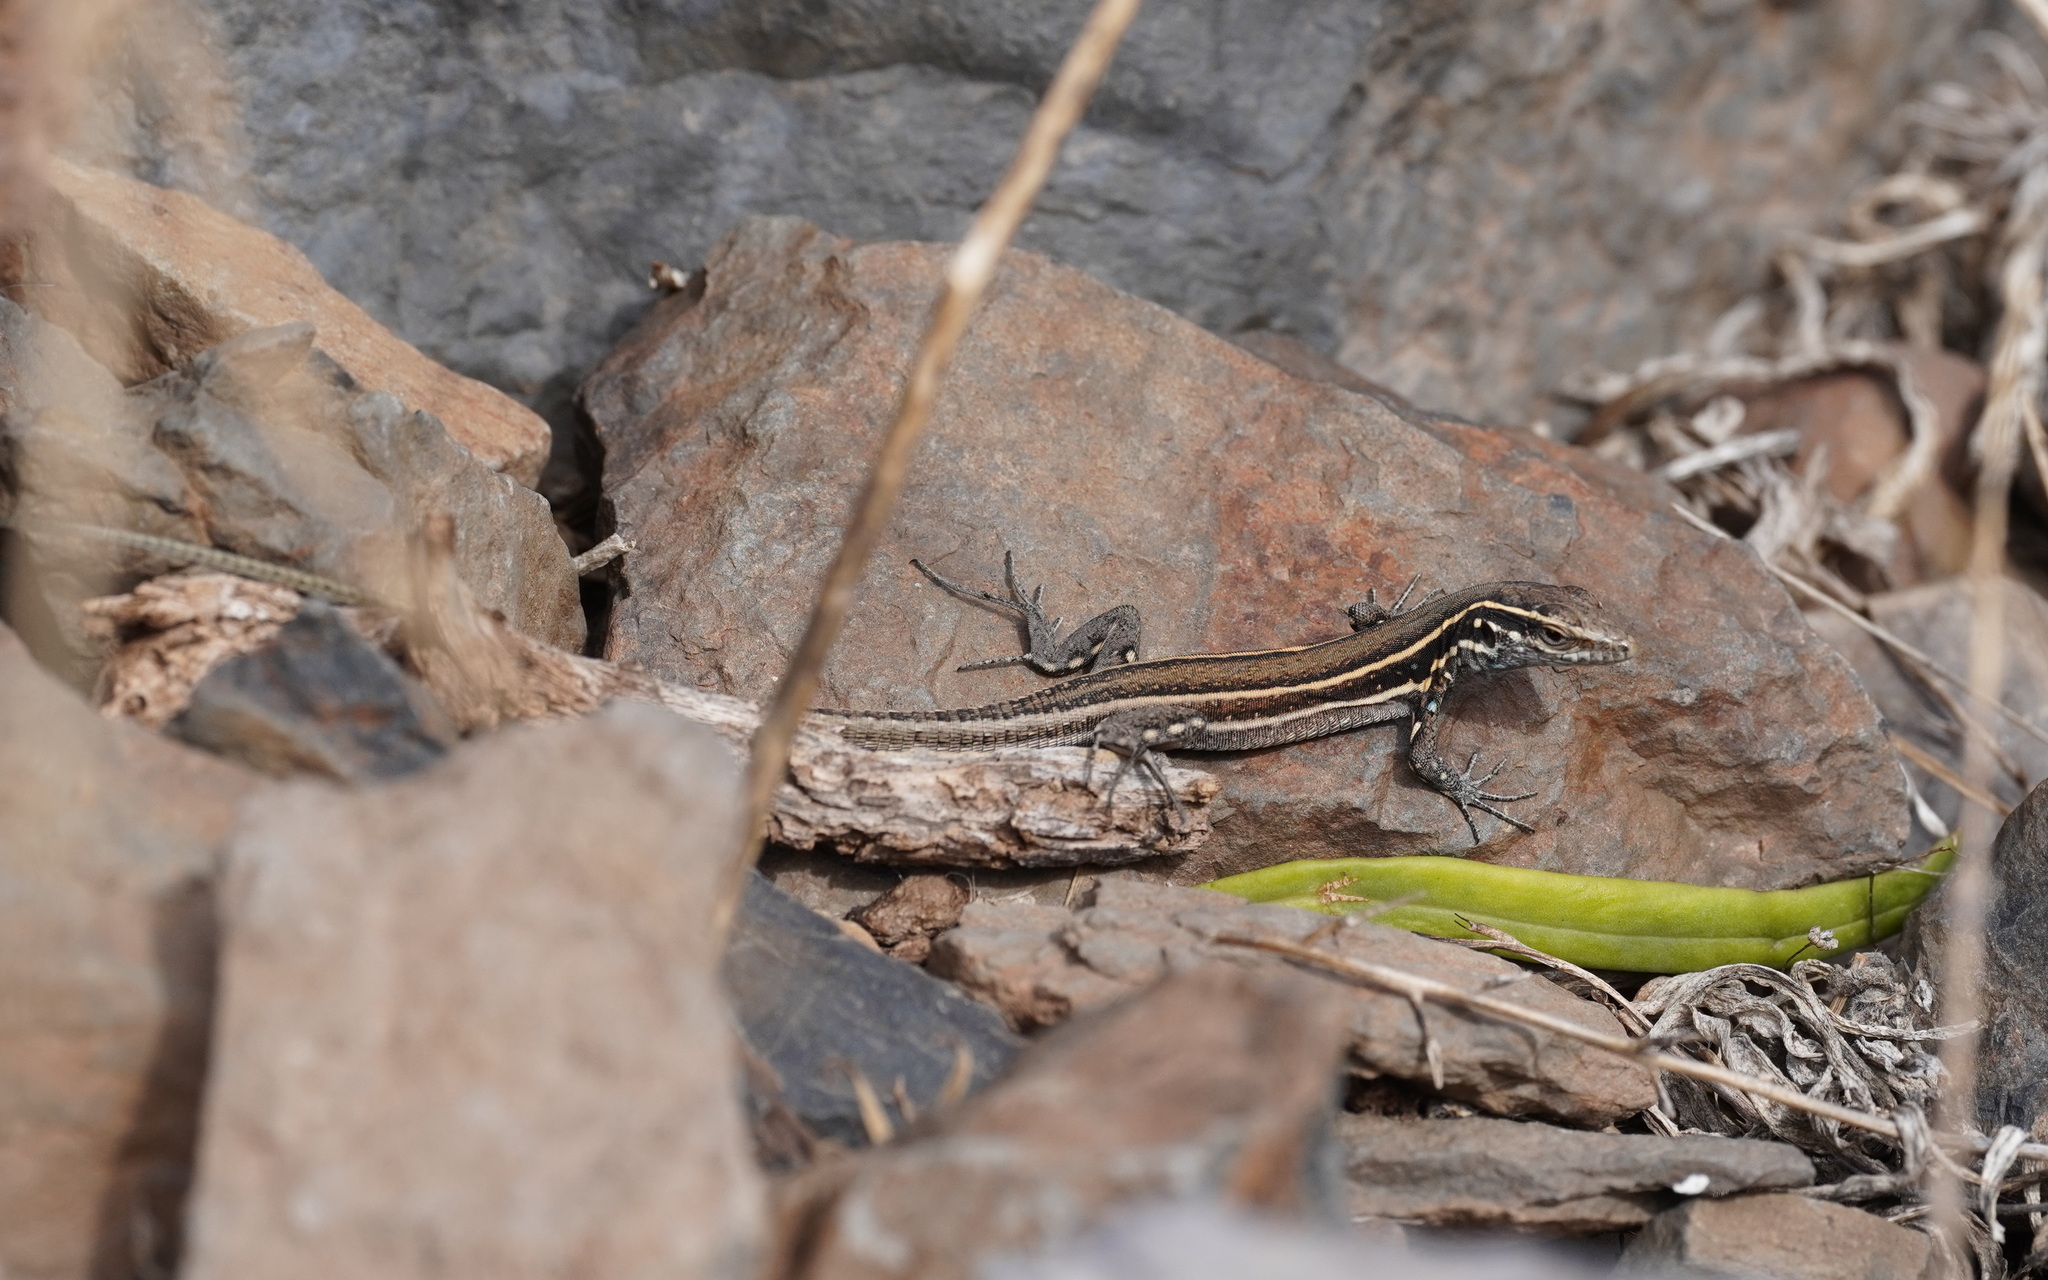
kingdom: Animalia
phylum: Chordata
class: Squamata
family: Lacertidae
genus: Gallotia
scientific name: Gallotia caesaris
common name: Boettger's lizard
